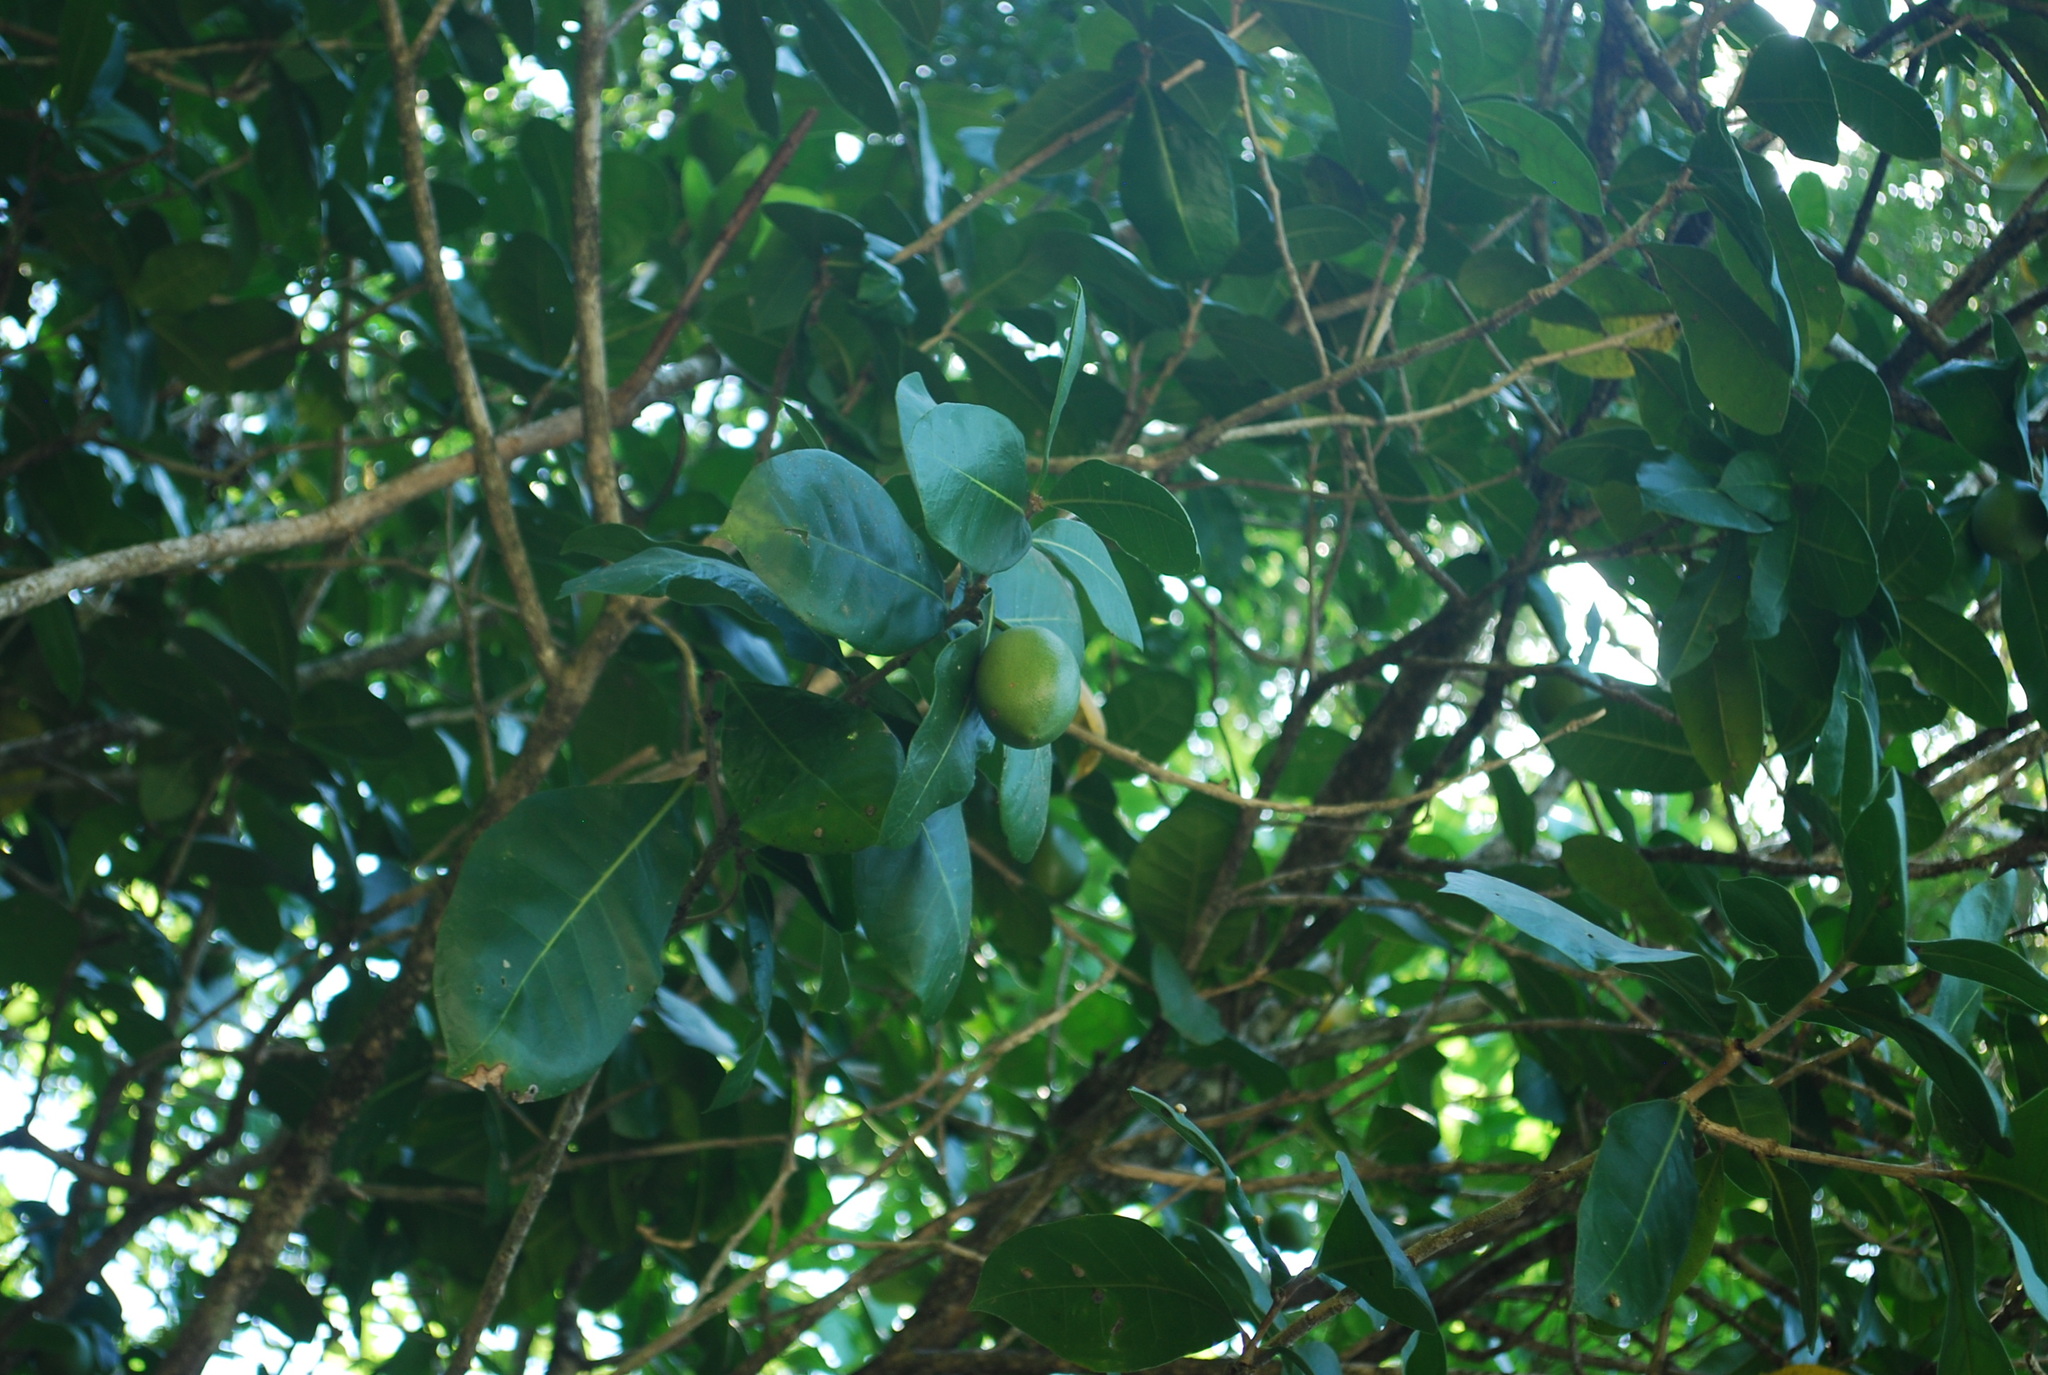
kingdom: Plantae
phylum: Tracheophyta
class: Magnoliopsida
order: Lamiales
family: Bignoniaceae
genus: Amphitecna
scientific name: Amphitecna latifolia
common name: Black-calabash
